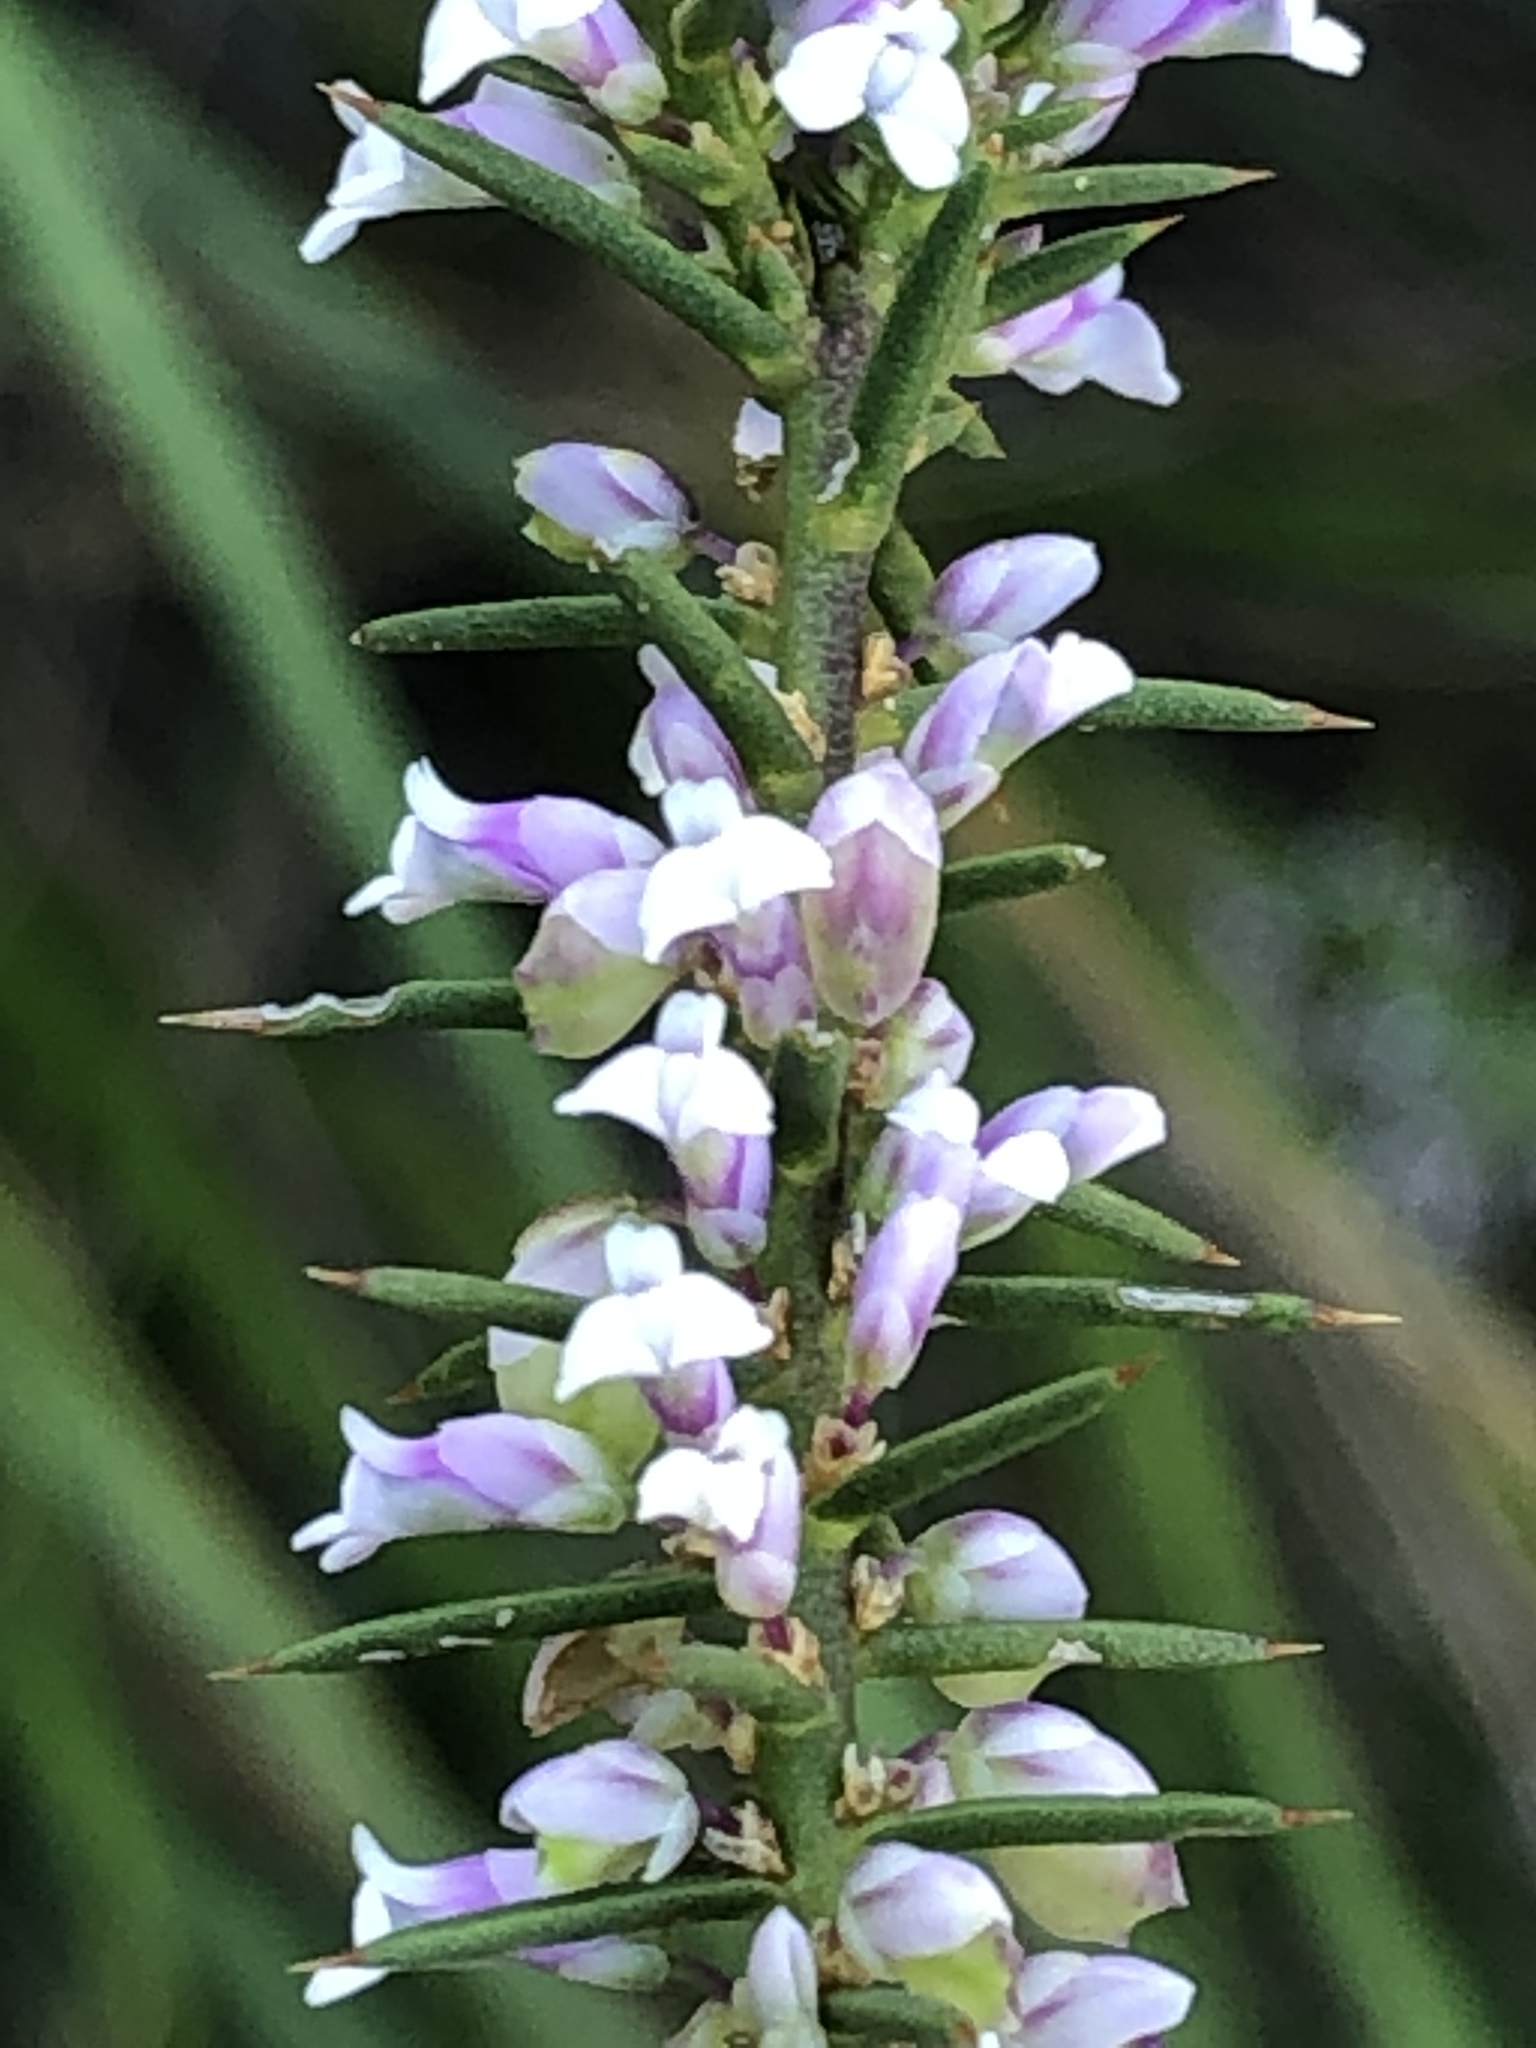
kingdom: Plantae
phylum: Tracheophyta
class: Magnoliopsida
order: Fabales
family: Polygalaceae
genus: Muraltia
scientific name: Muraltia juniperifolia
